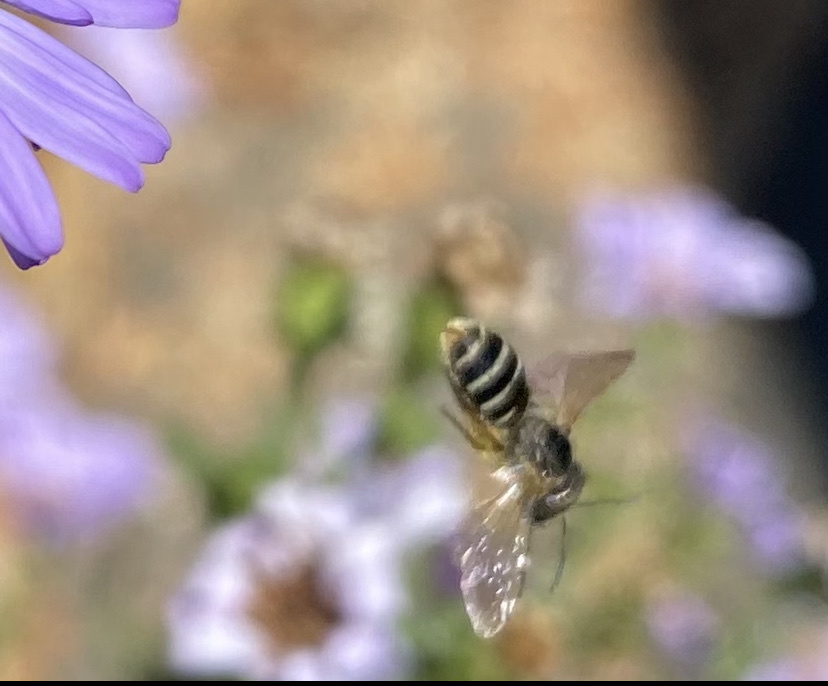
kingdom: Animalia
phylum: Arthropoda
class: Insecta
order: Hymenoptera
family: Halictidae
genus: Halictus
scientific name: Halictus ligatus
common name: Ligated furrow bee
